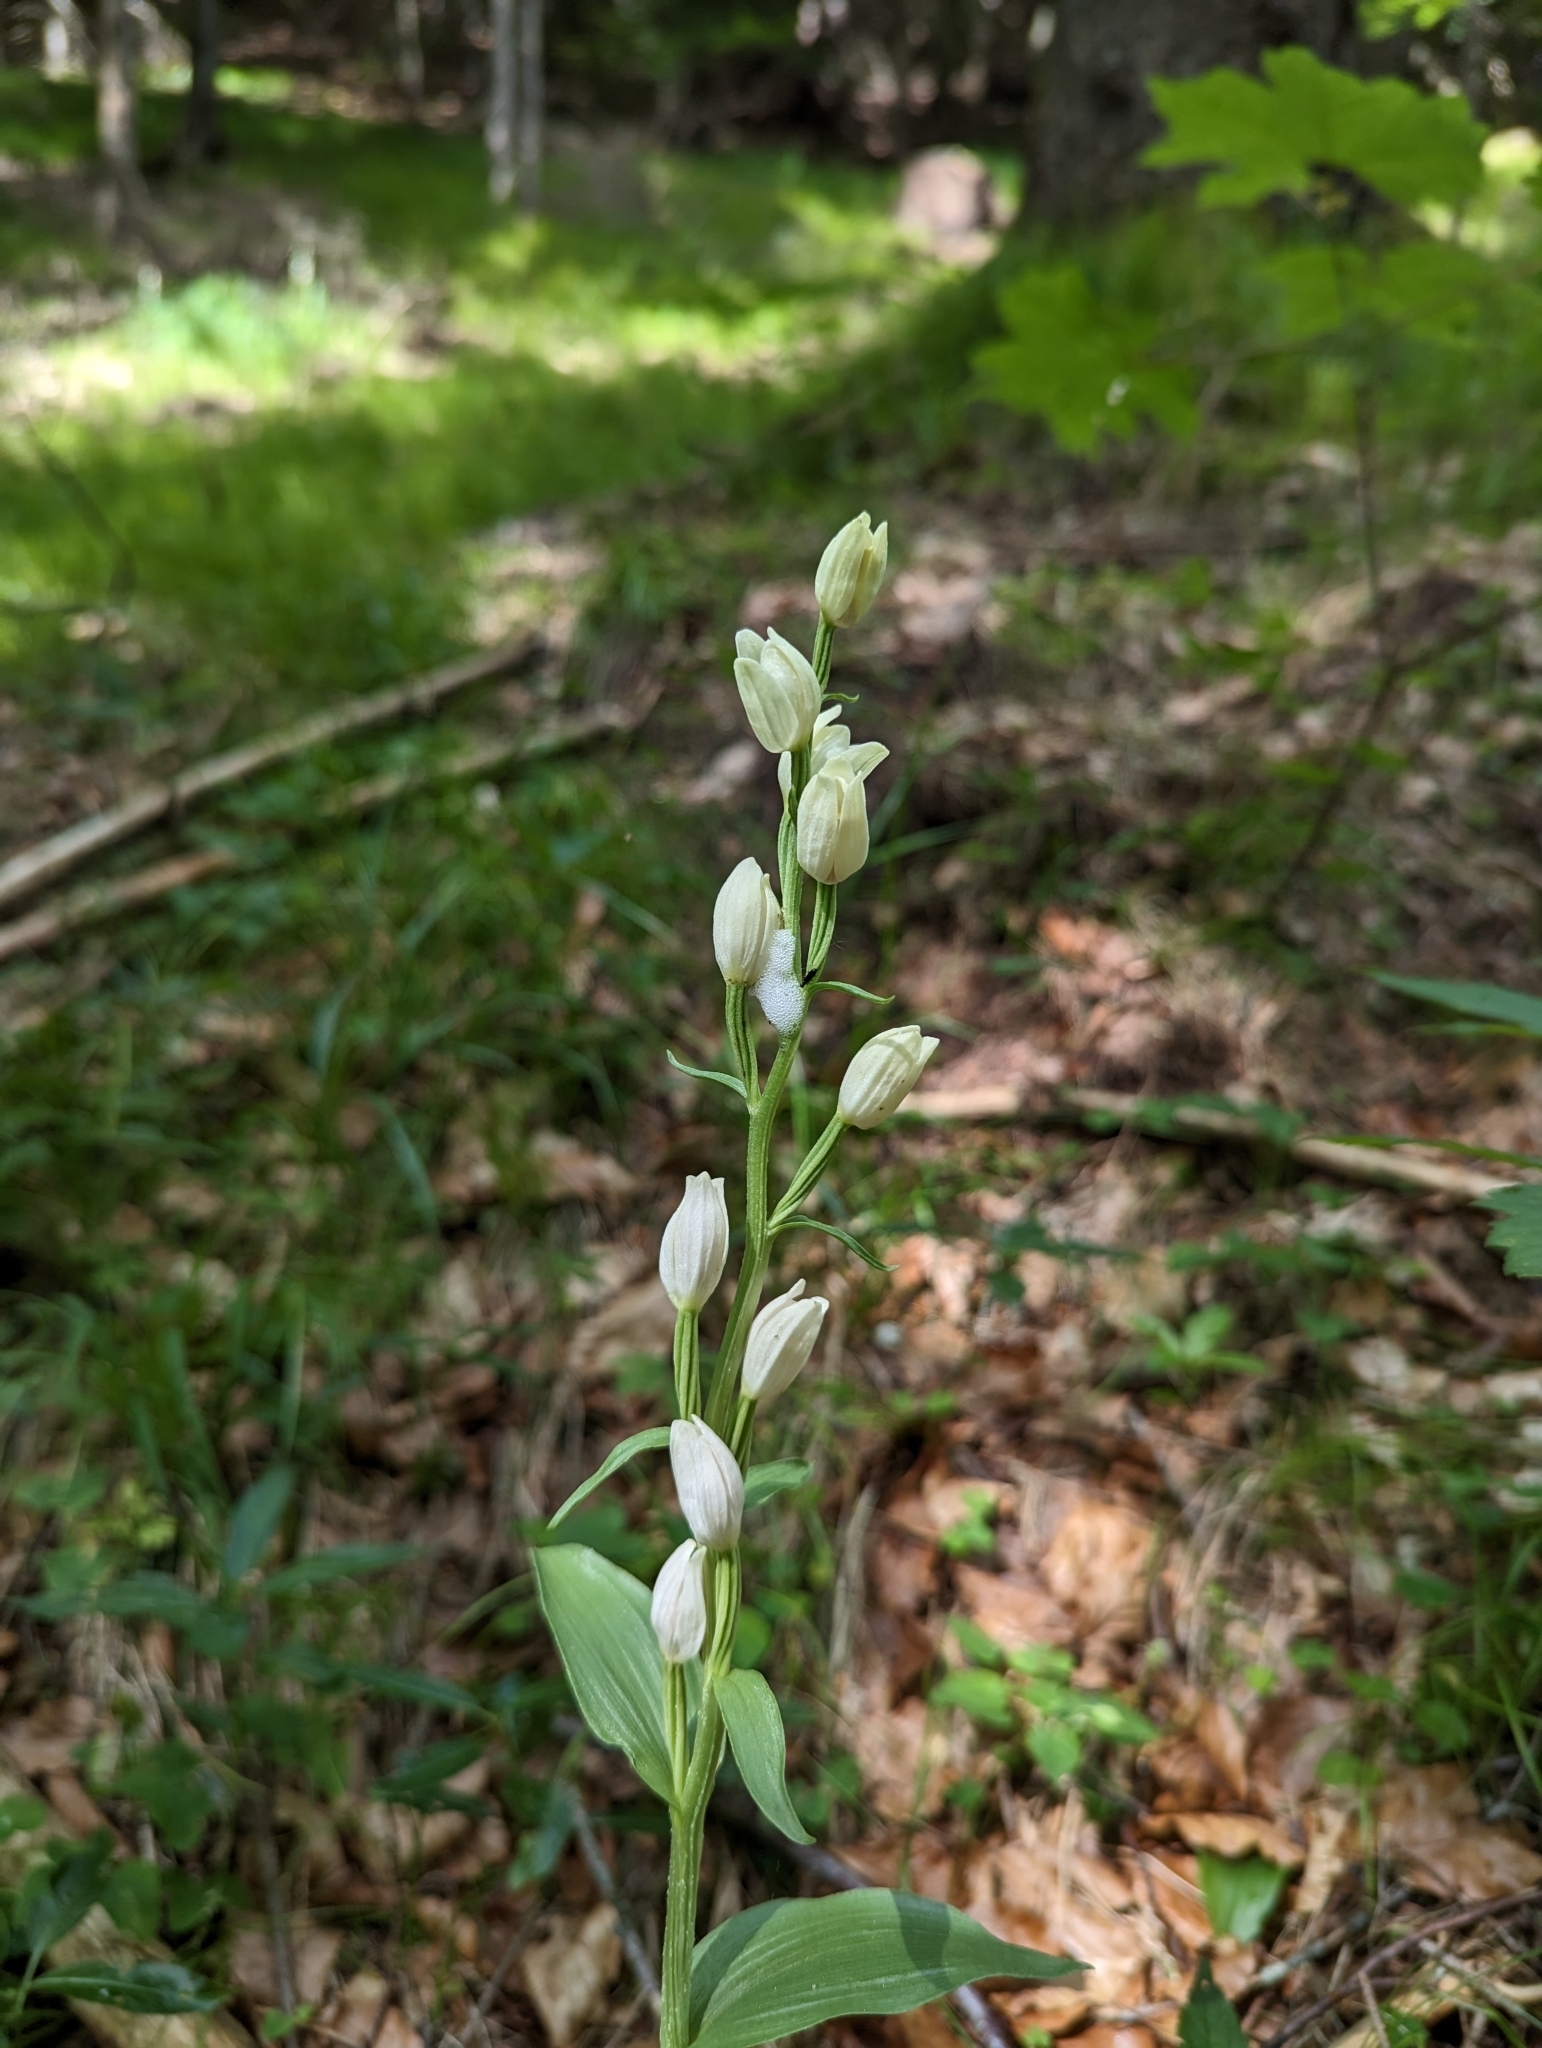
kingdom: Plantae
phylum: Tracheophyta
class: Liliopsida
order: Asparagales
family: Orchidaceae
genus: Cephalanthera
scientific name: Cephalanthera damasonium
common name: White helleborine
